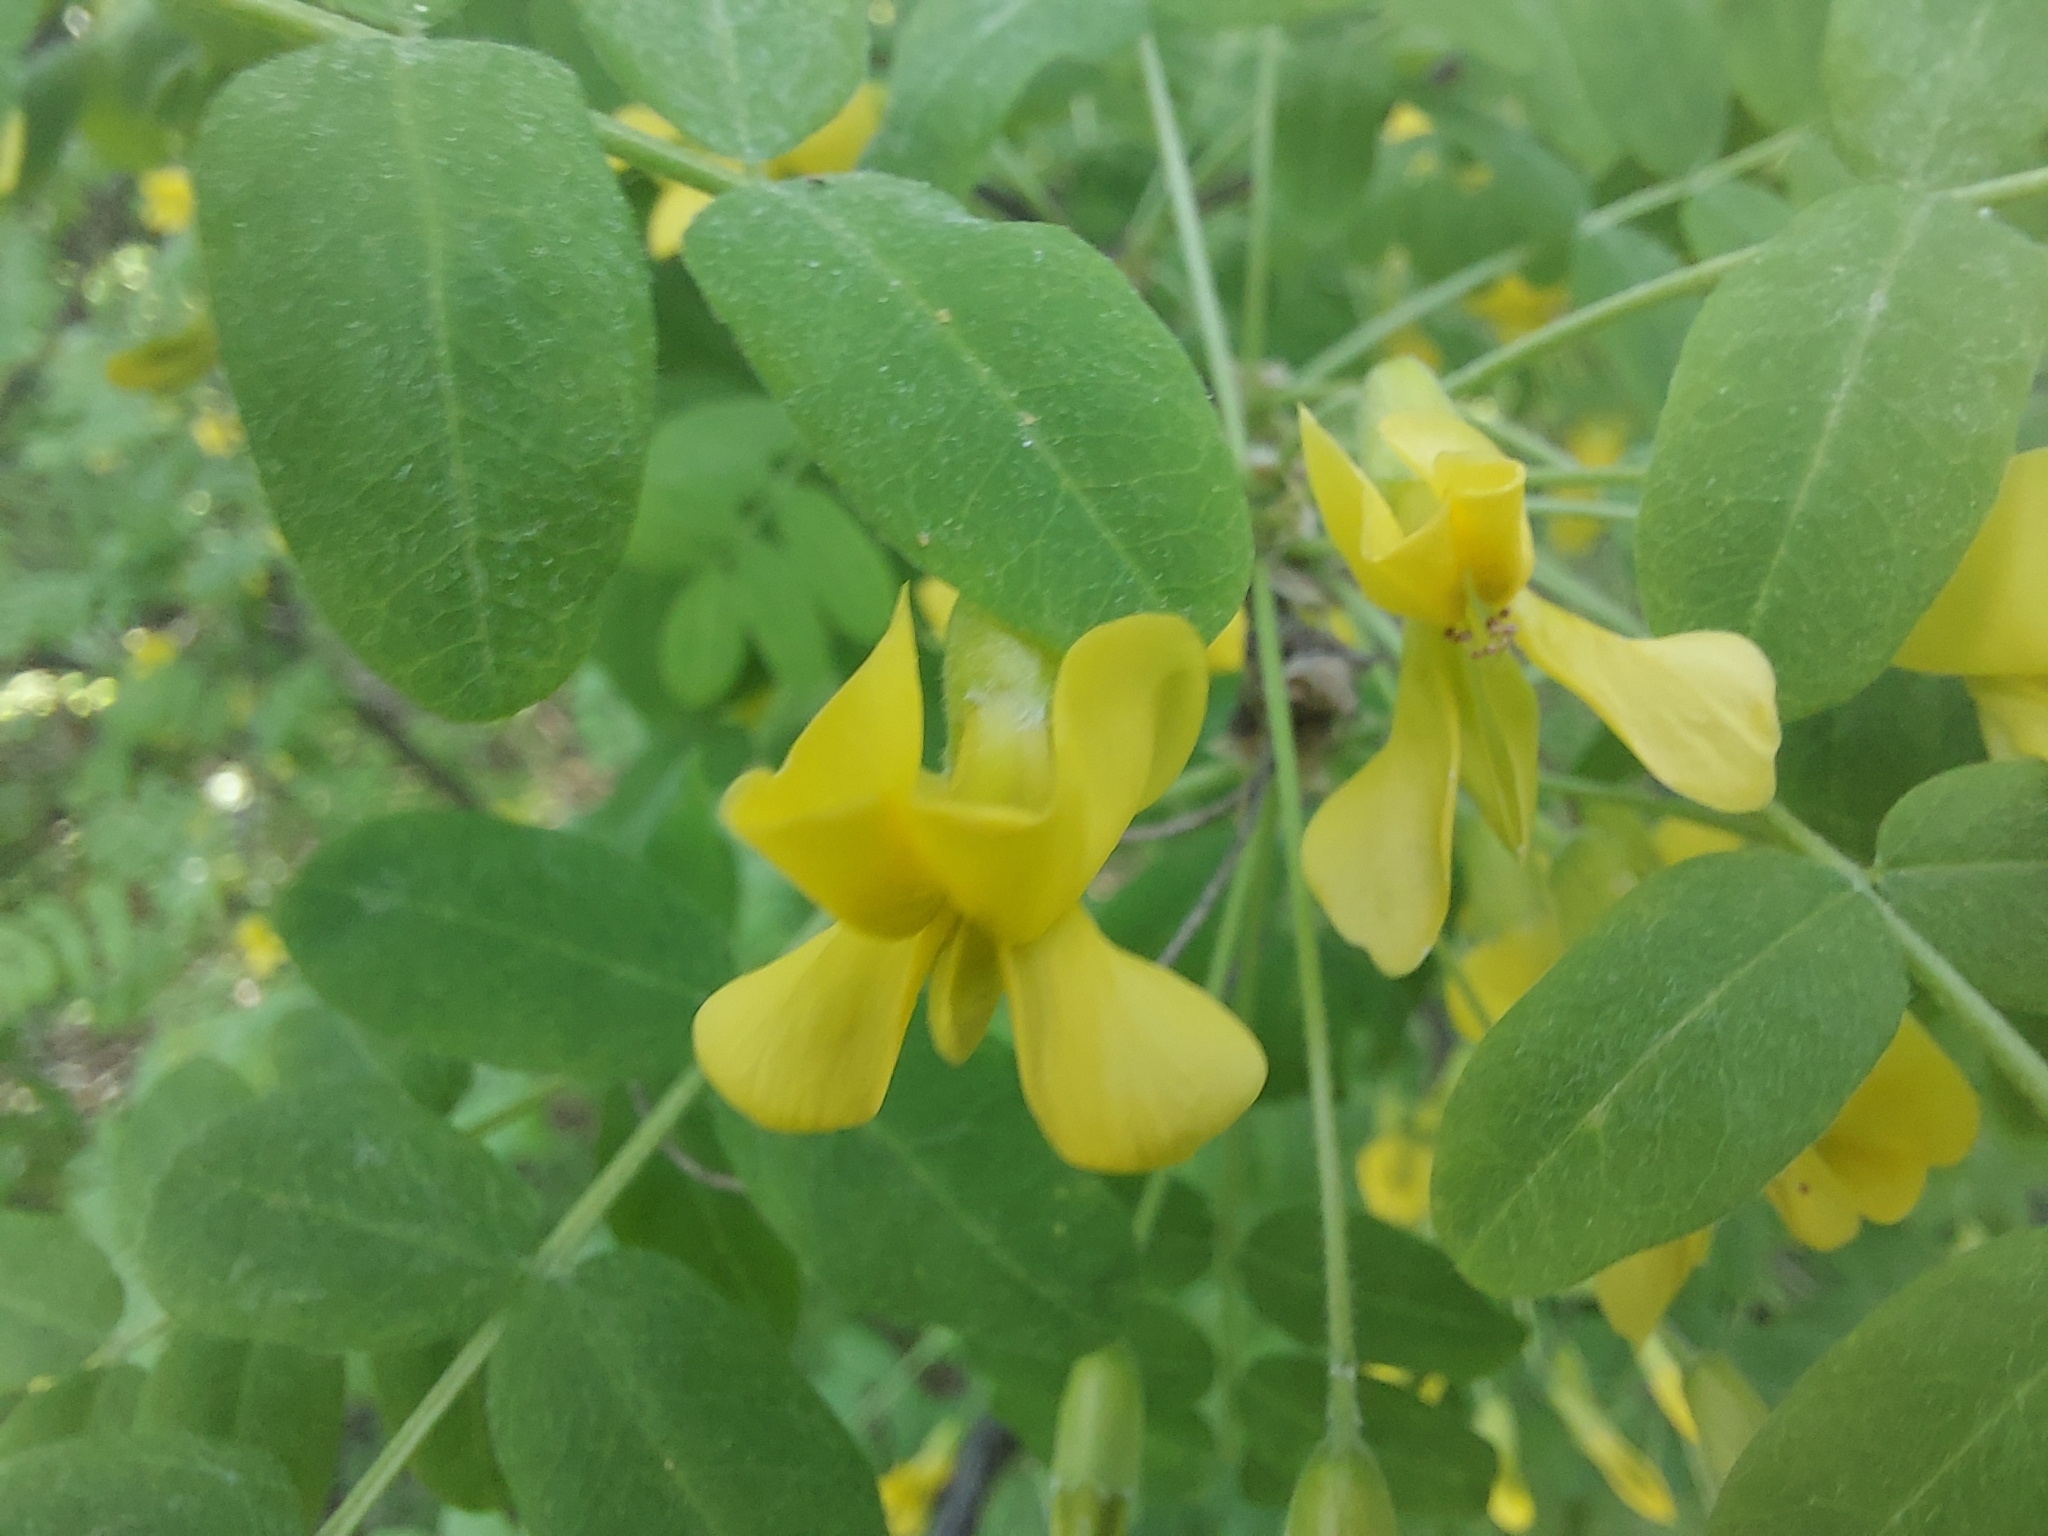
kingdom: Plantae
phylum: Tracheophyta
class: Magnoliopsida
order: Fabales
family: Fabaceae
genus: Caragana
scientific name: Caragana arborescens
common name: Siberian peashrub
